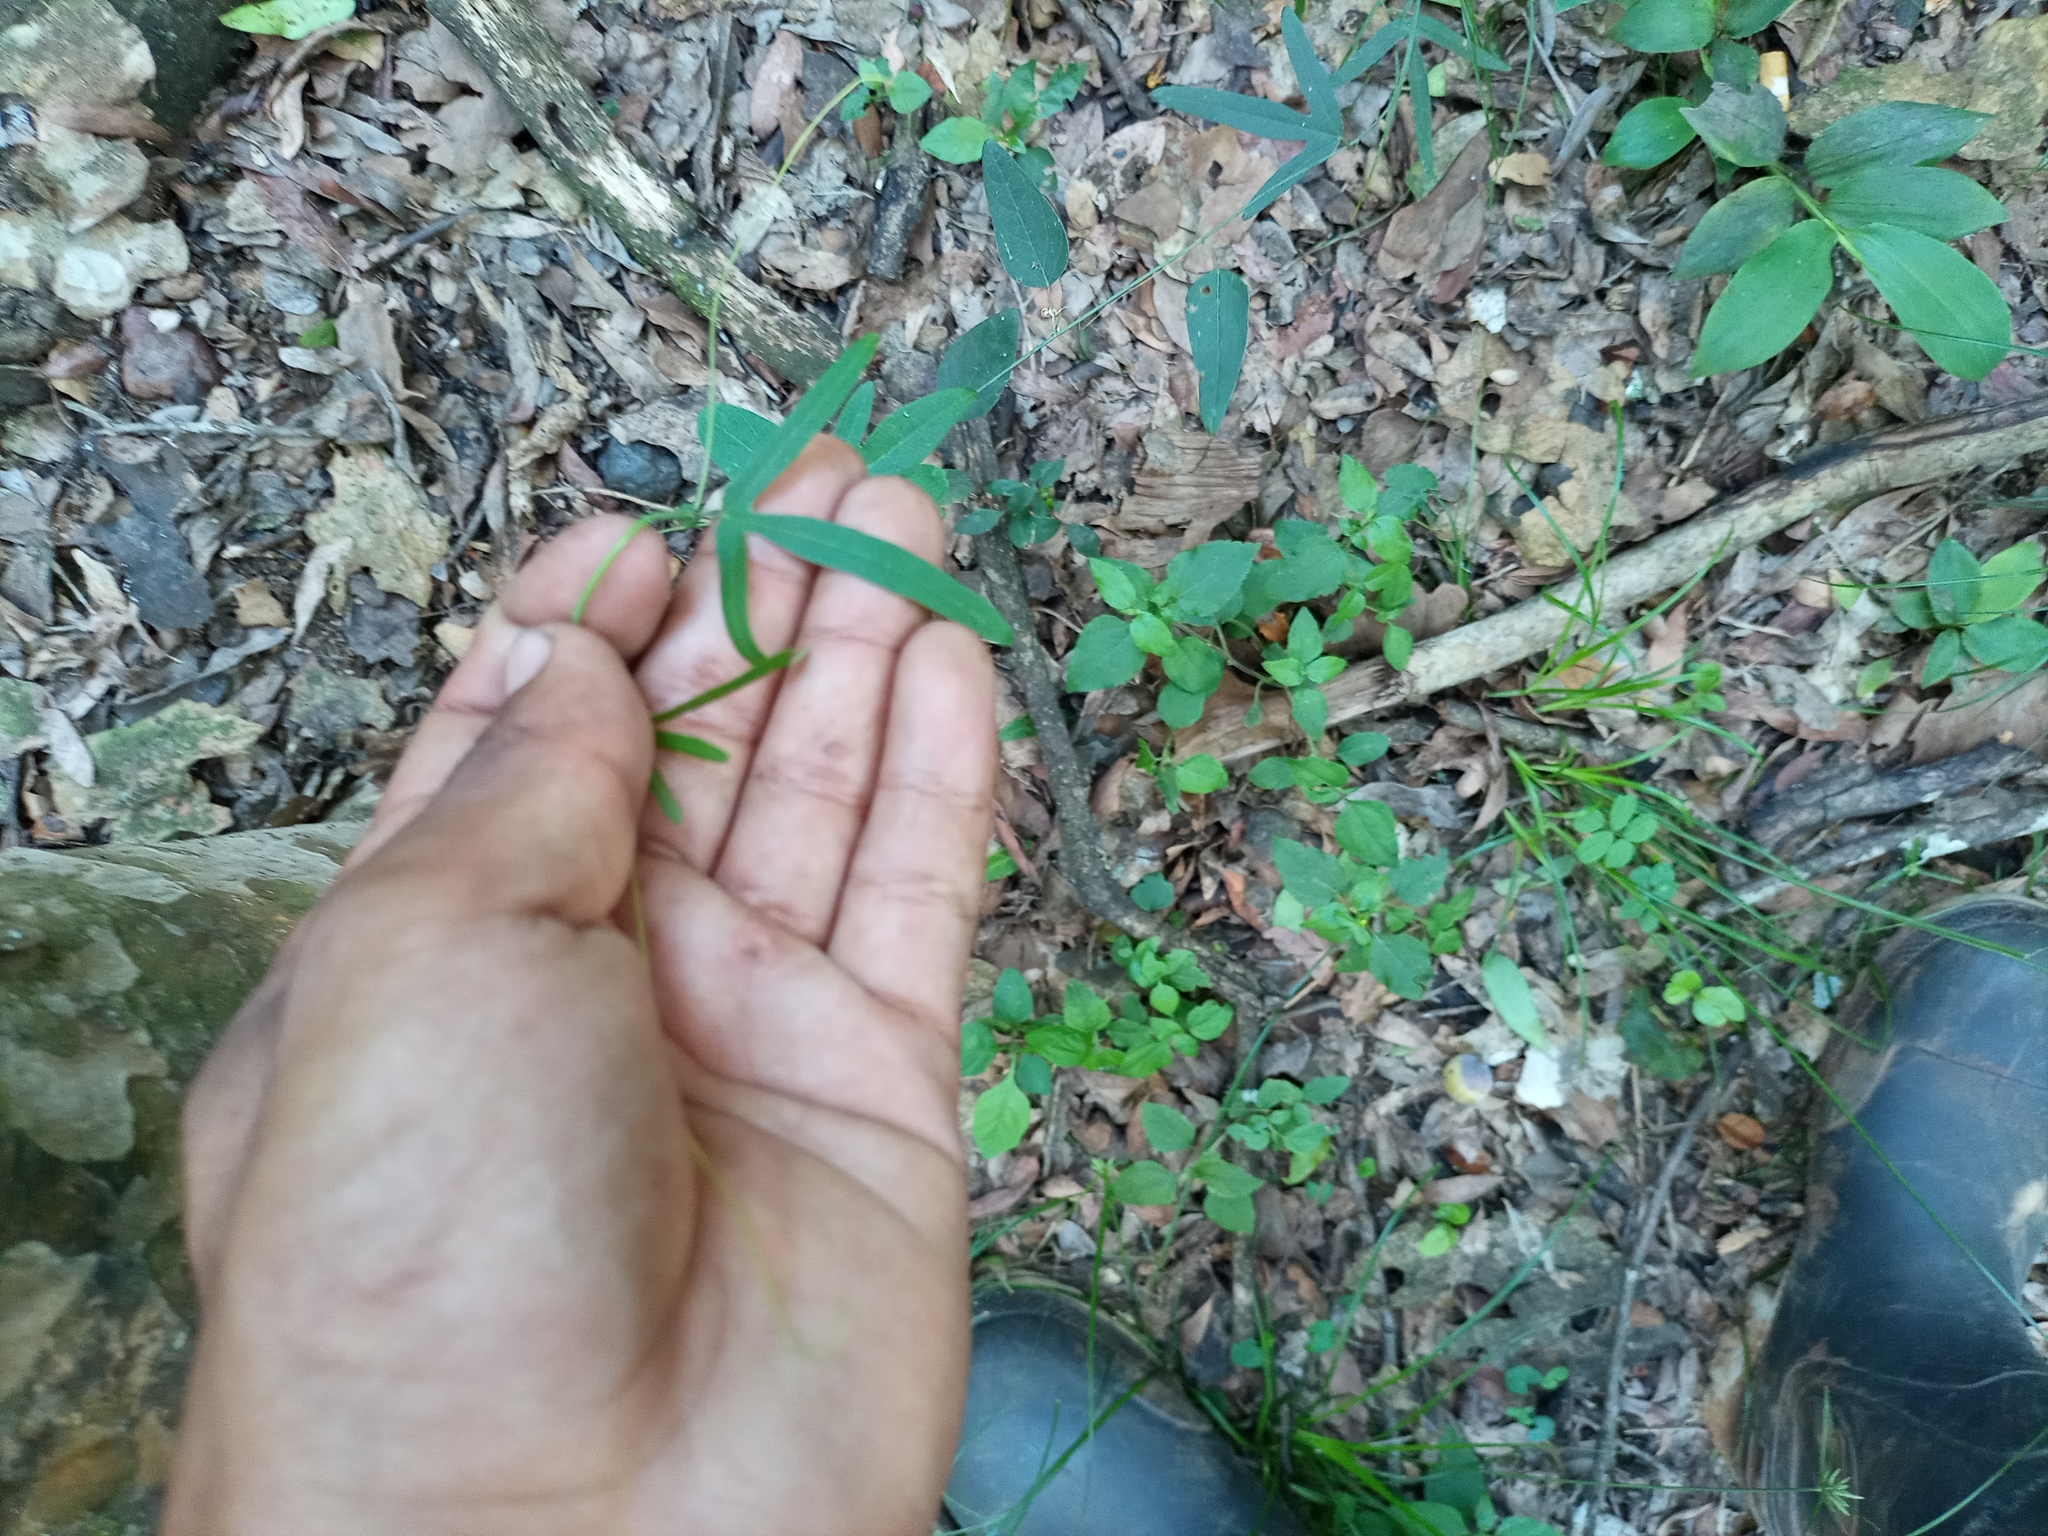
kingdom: Plantae
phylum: Tracheophyta
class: Magnoliopsida
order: Malpighiales
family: Passifloraceae
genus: Passiflora
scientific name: Passiflora caerulea
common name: Blue passionflower
